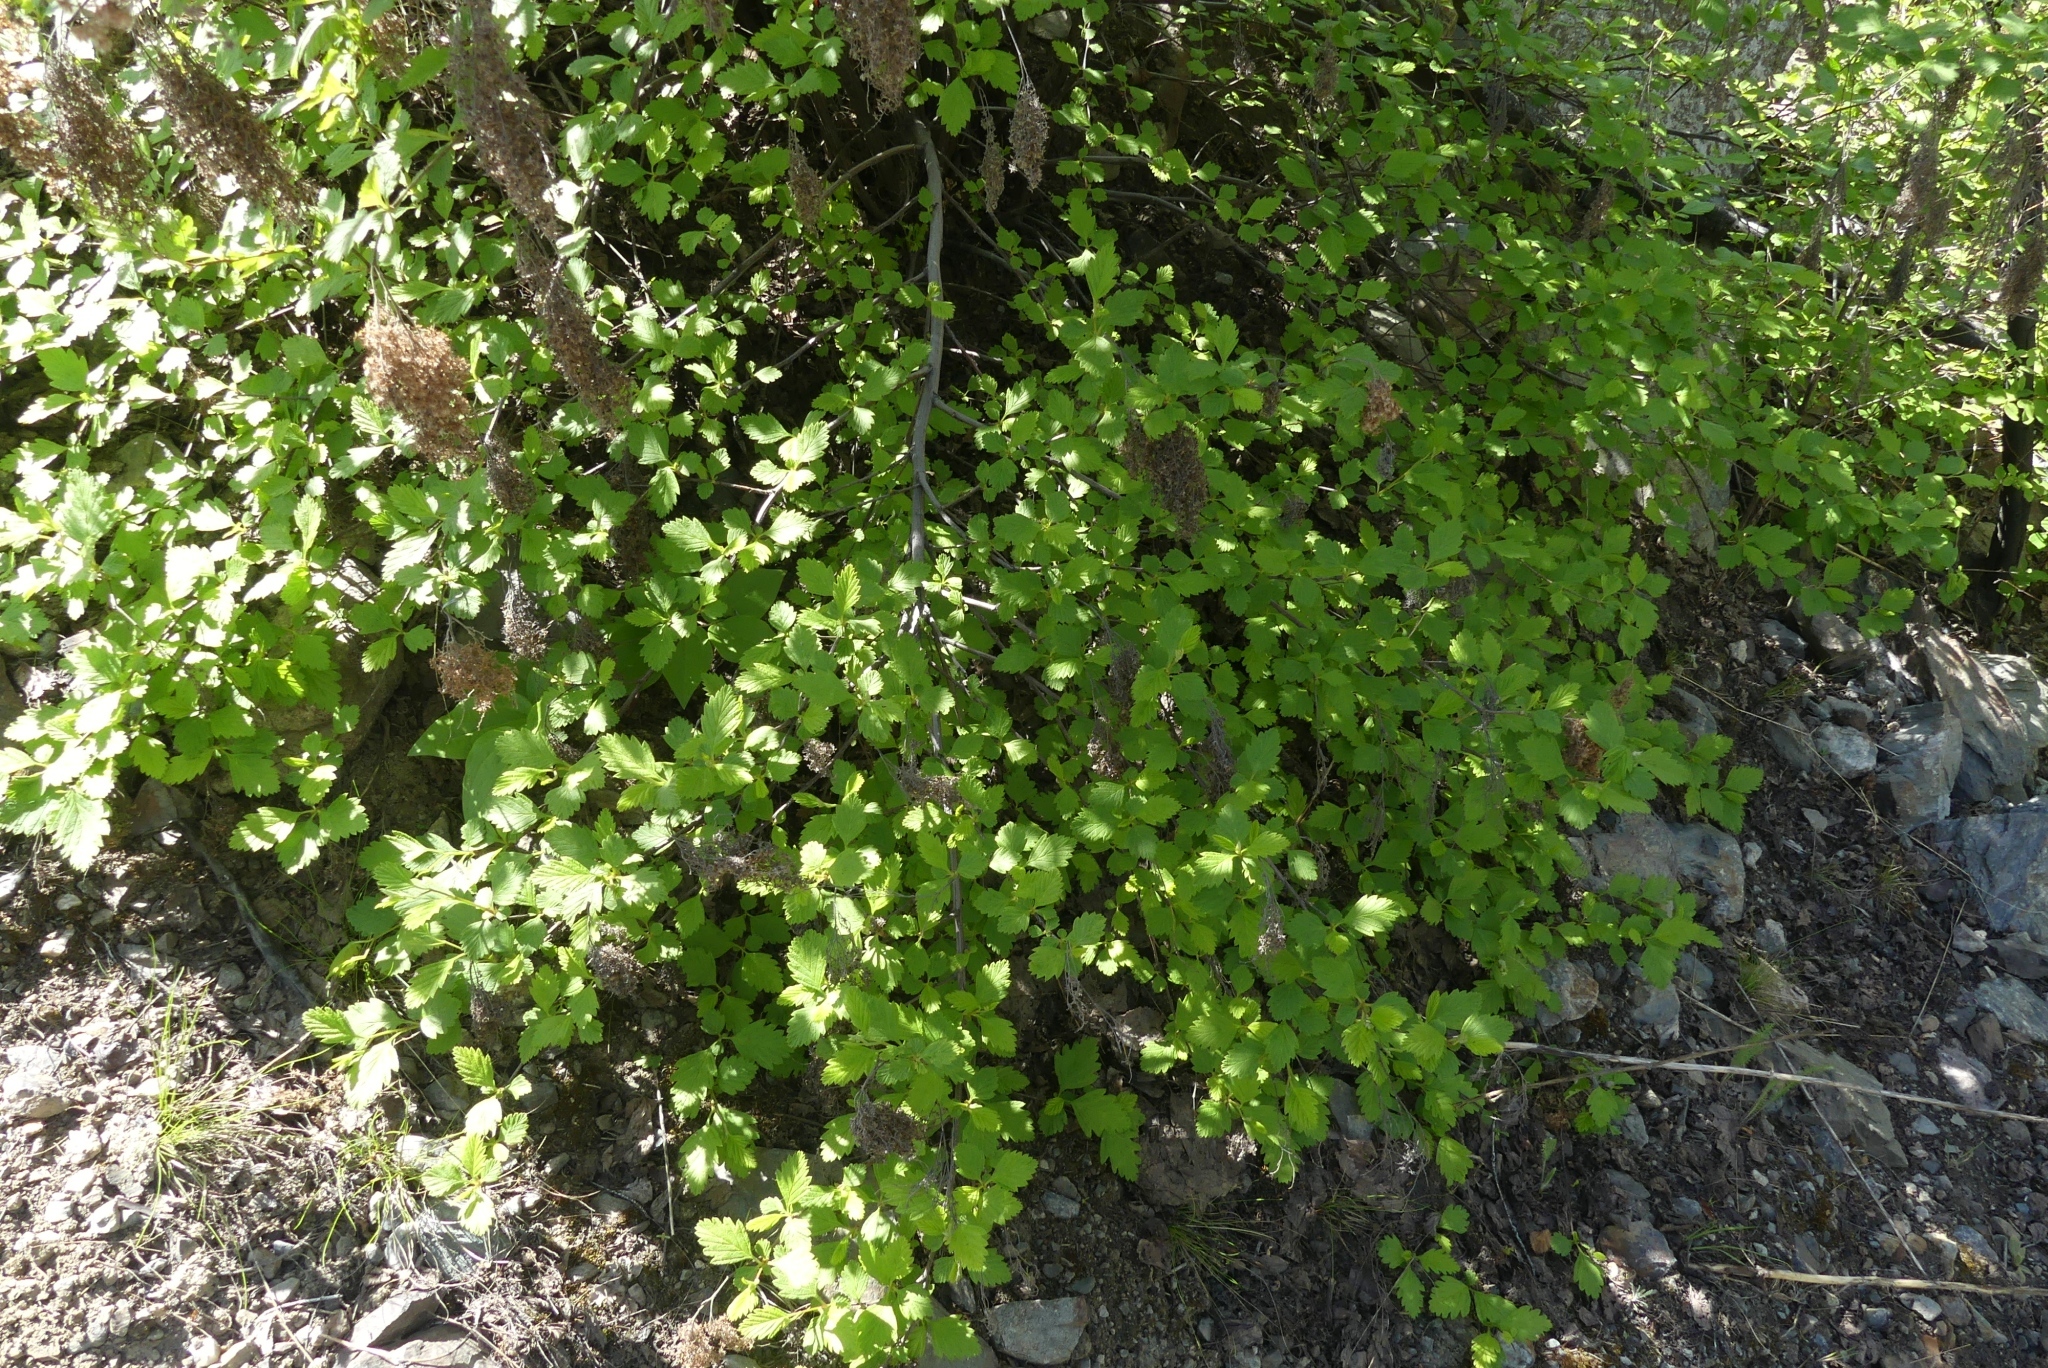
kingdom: Plantae
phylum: Tracheophyta
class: Magnoliopsida
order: Rosales
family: Rosaceae
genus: Holodiscus
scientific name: Holodiscus discolor
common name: Oceanspray
